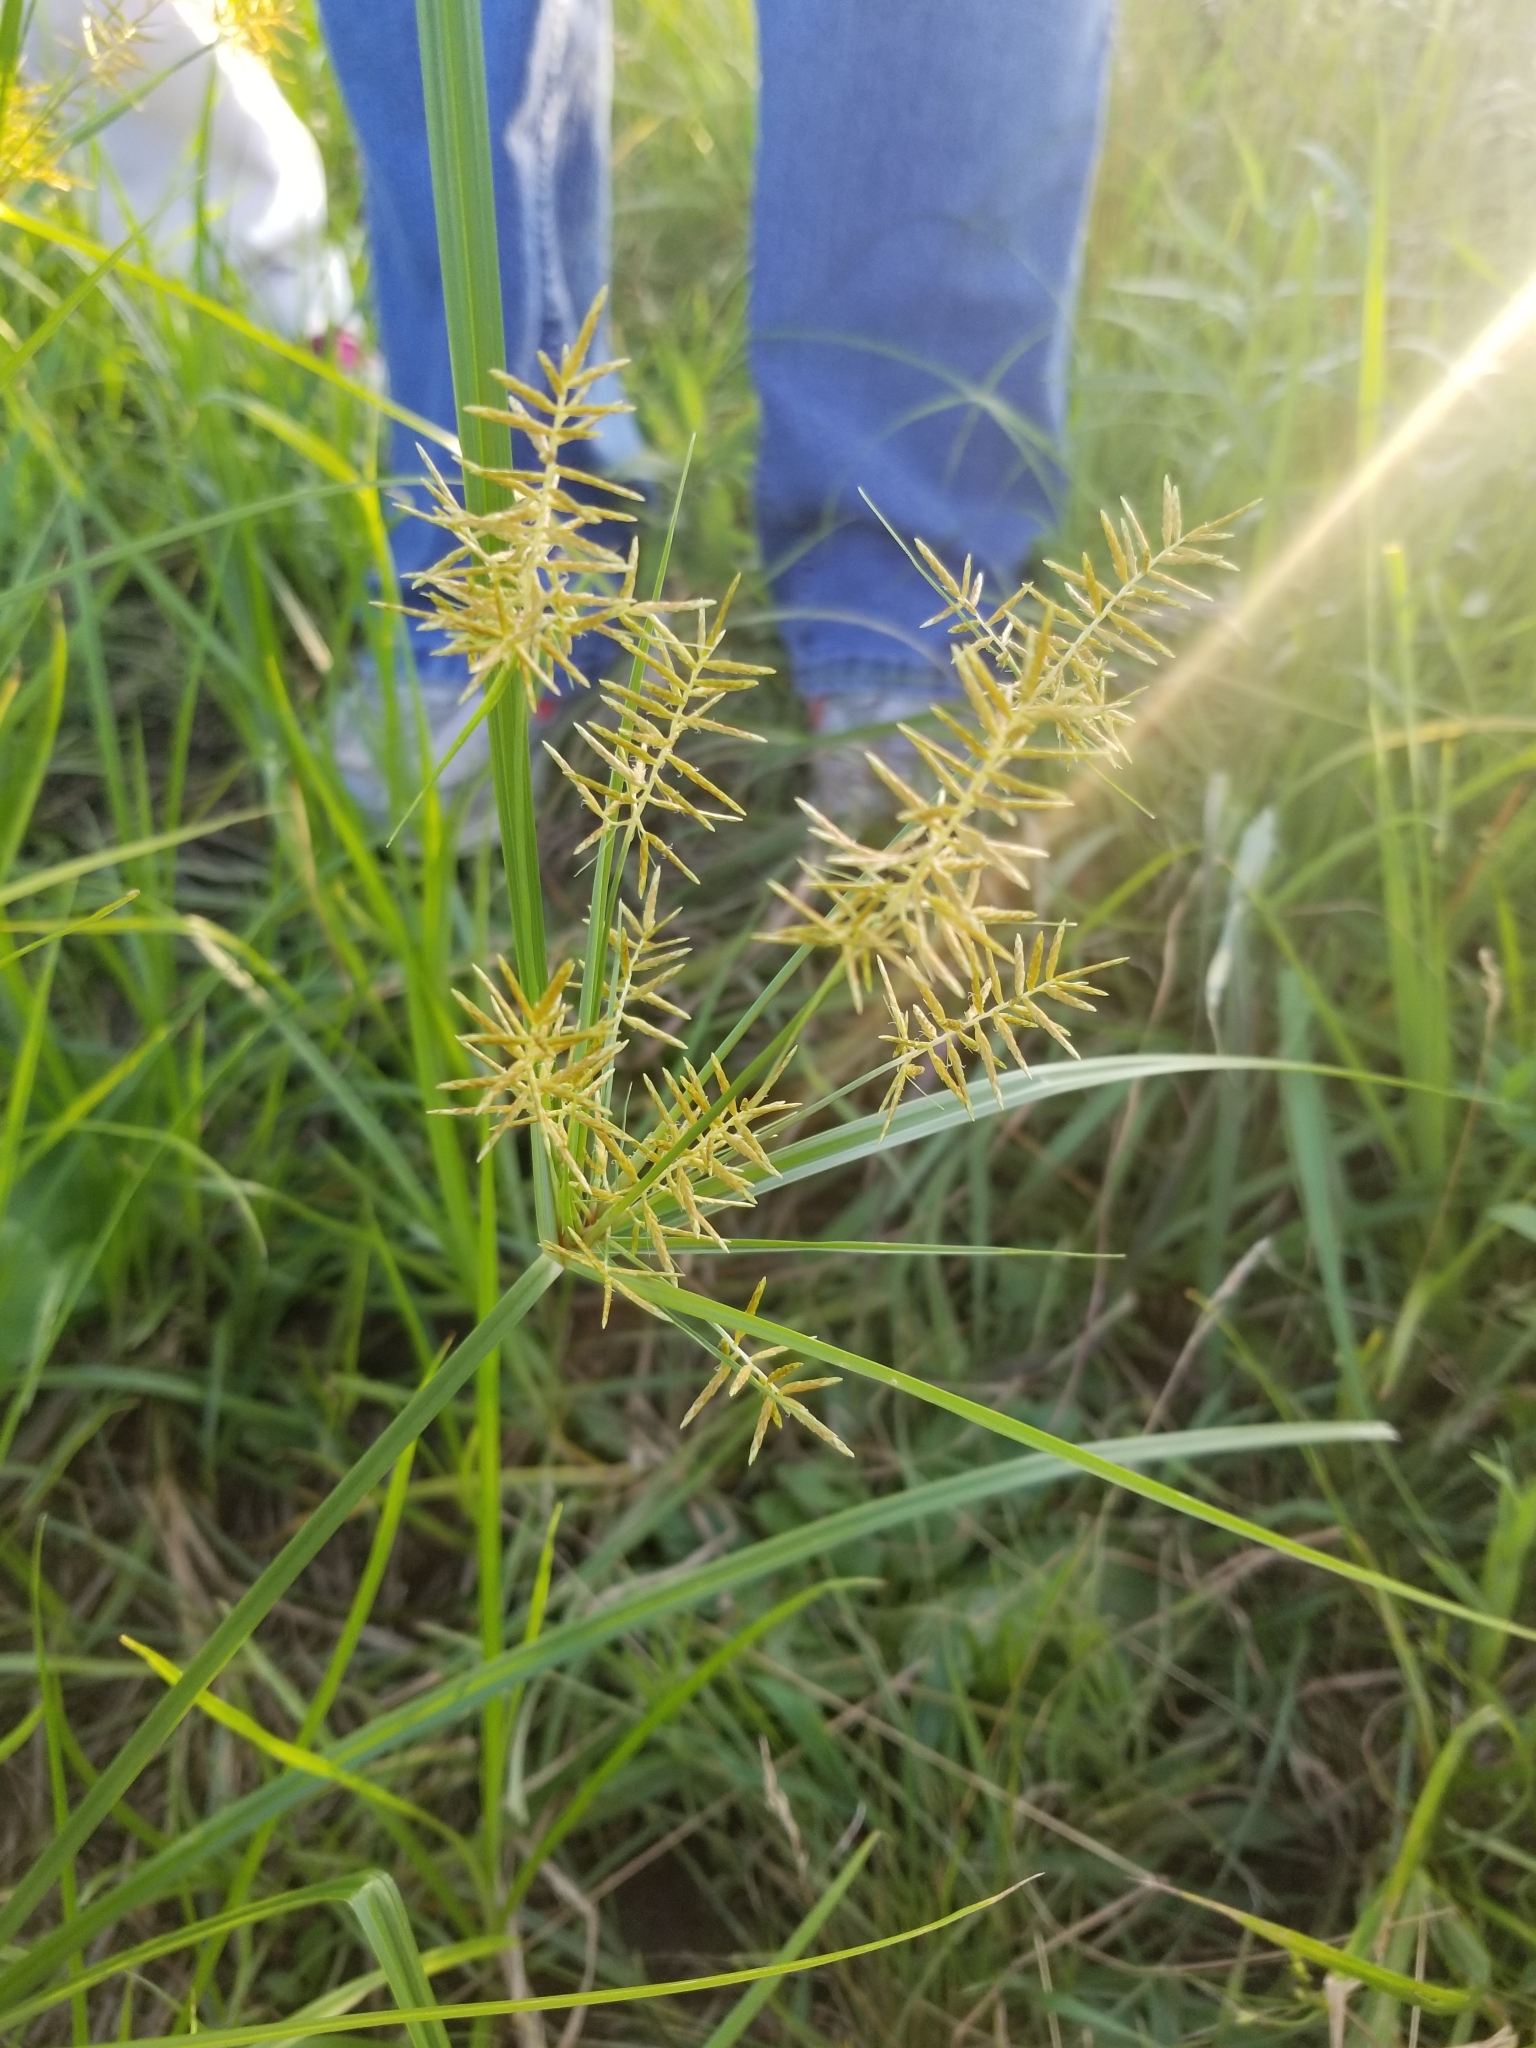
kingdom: Plantae
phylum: Tracheophyta
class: Liliopsida
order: Poales
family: Cyperaceae
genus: Cyperus
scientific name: Cyperus esculentus
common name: Yellow nutsedge
